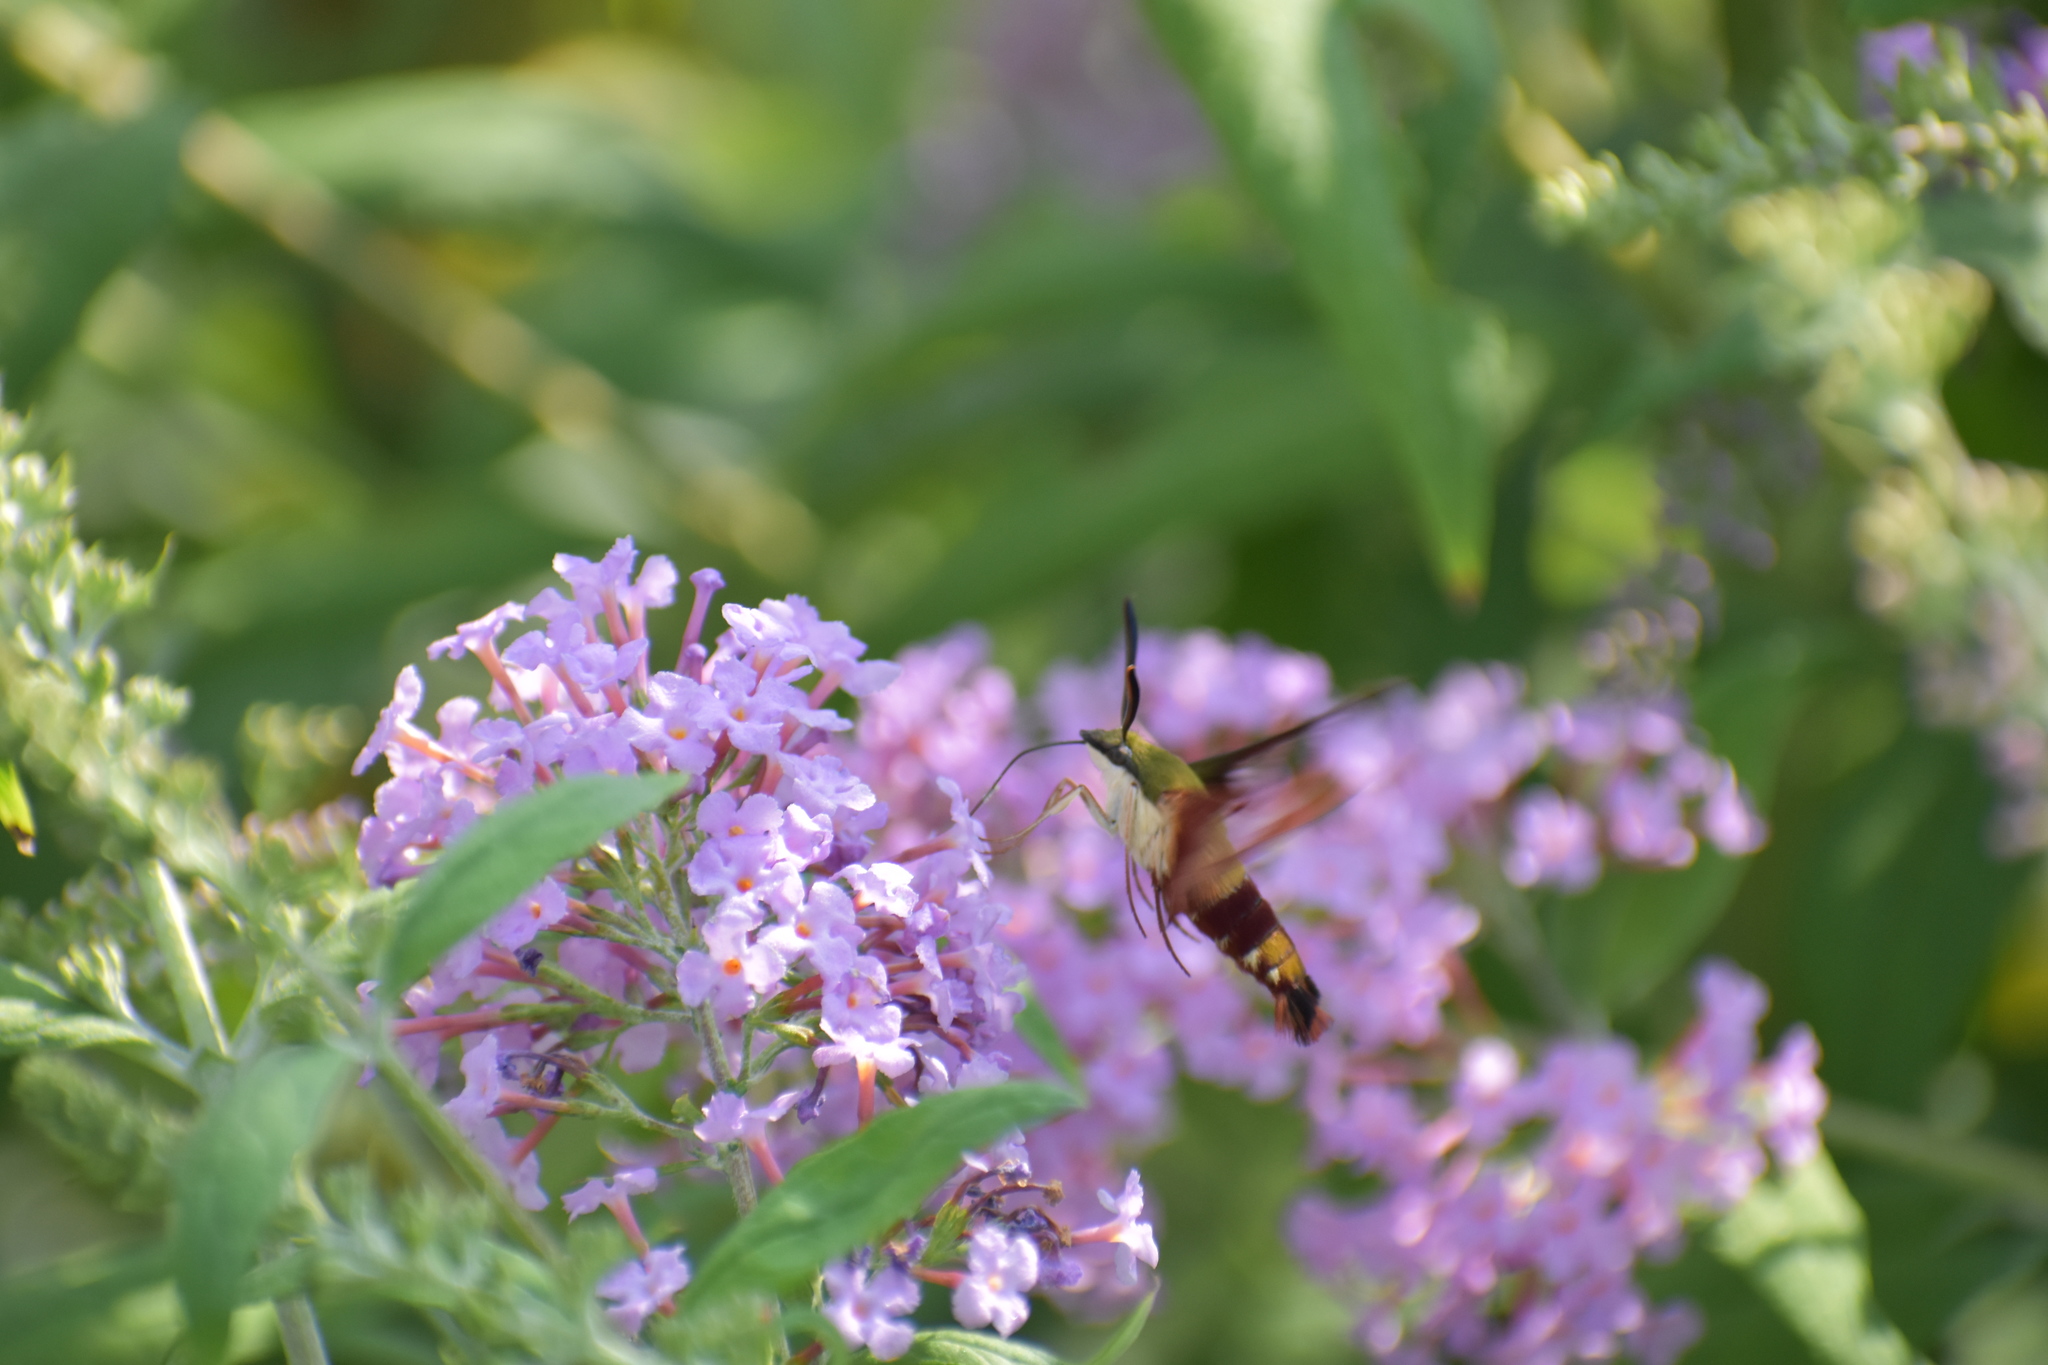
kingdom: Animalia
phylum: Arthropoda
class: Insecta
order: Lepidoptera
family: Sphingidae
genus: Hemaris
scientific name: Hemaris thysbe
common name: Common clear-wing
